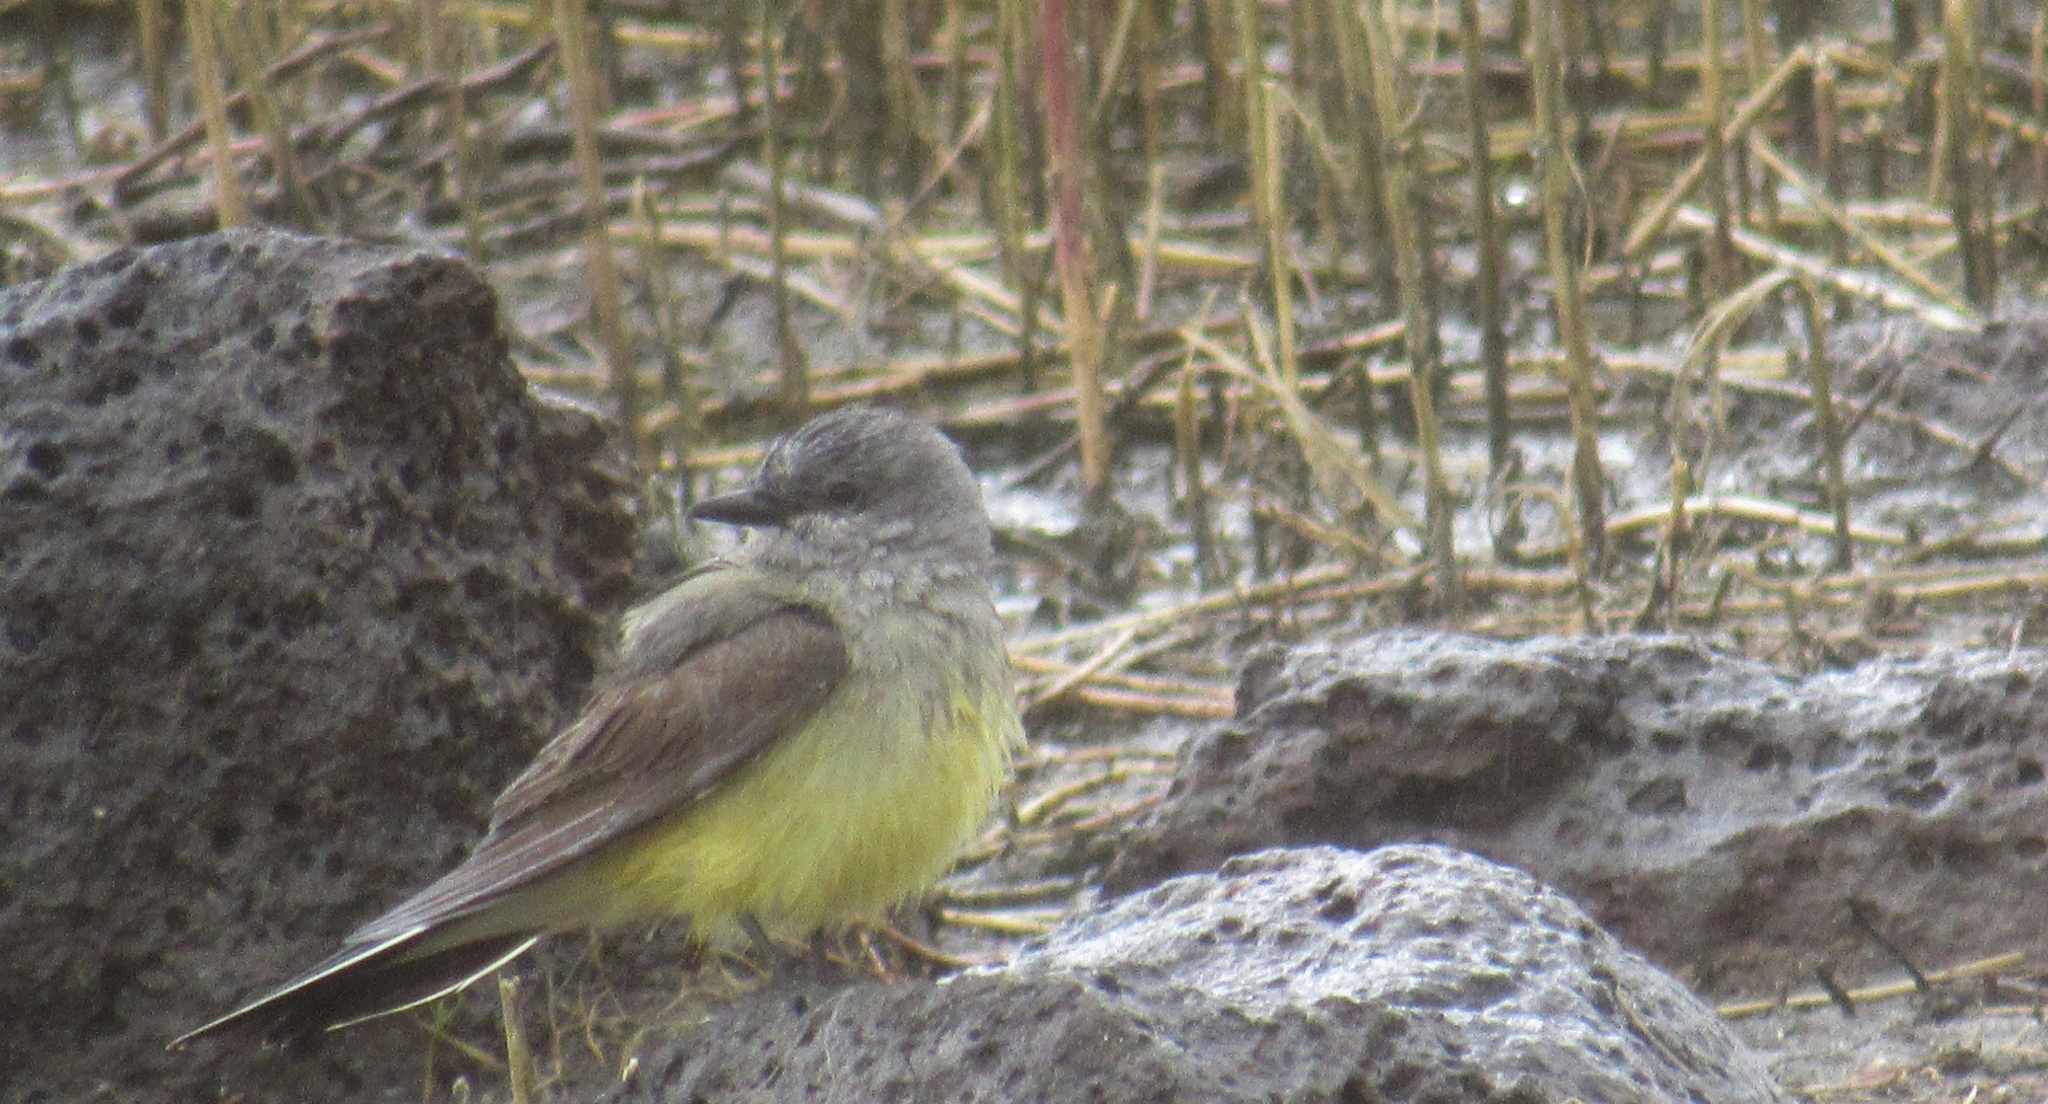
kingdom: Animalia
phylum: Chordata
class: Aves
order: Passeriformes
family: Tyrannidae
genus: Tyrannus
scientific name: Tyrannus verticalis
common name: Western kingbird
